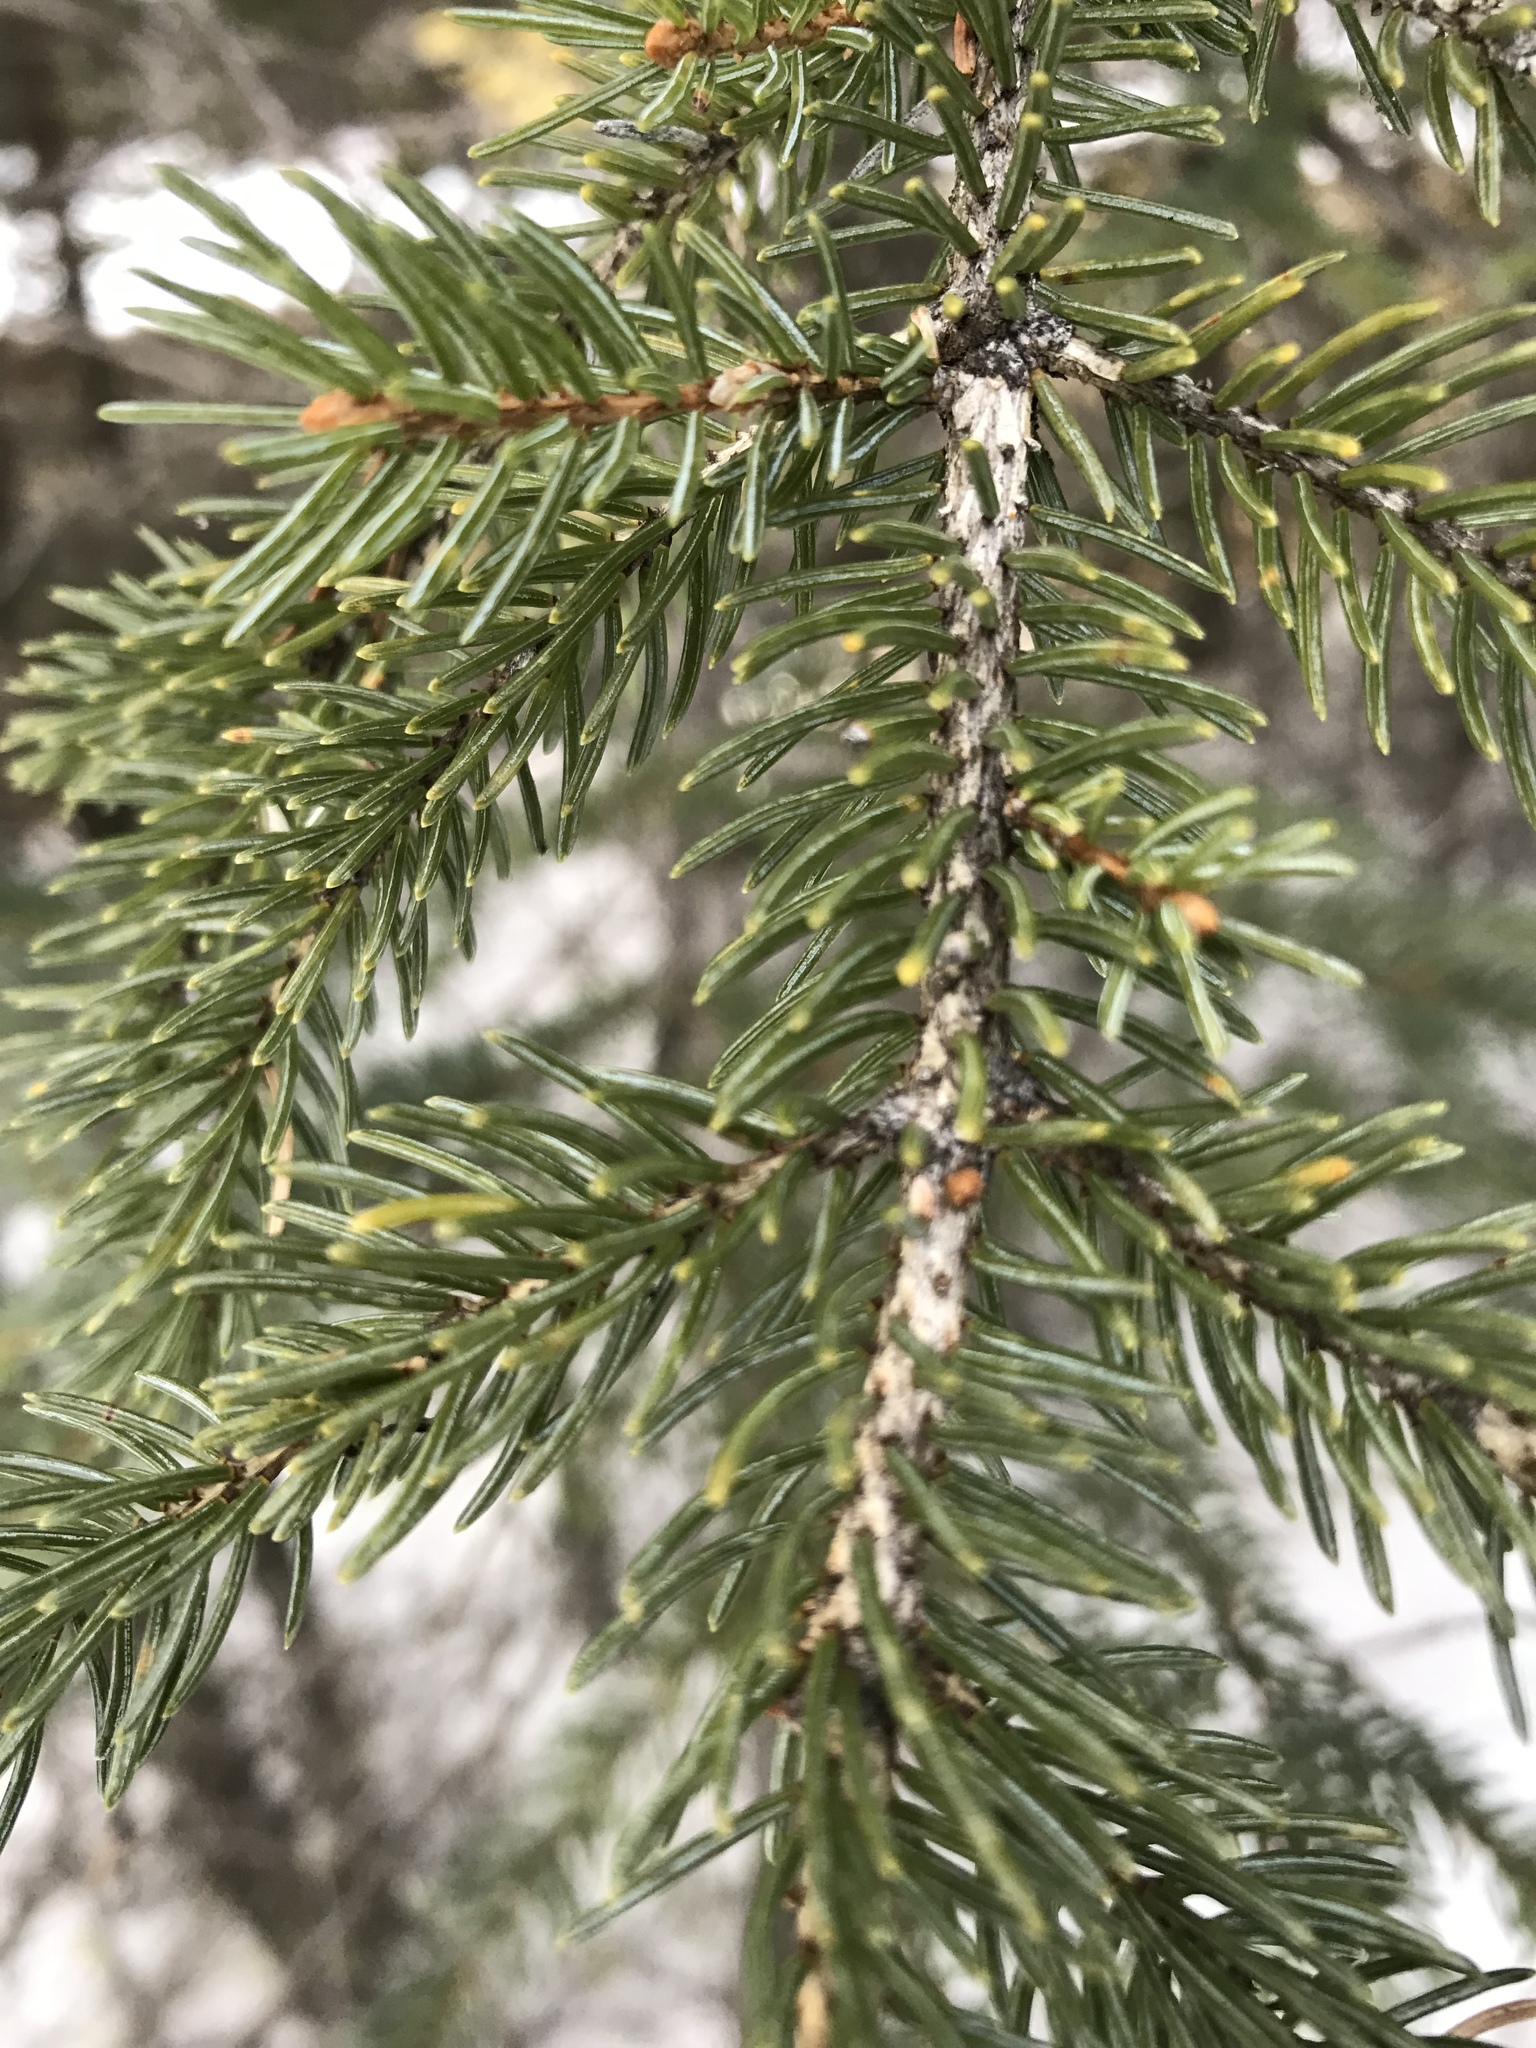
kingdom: Plantae
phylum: Tracheophyta
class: Pinopsida
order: Pinales
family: Pinaceae
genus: Picea
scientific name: Picea mariana
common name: Black spruce
